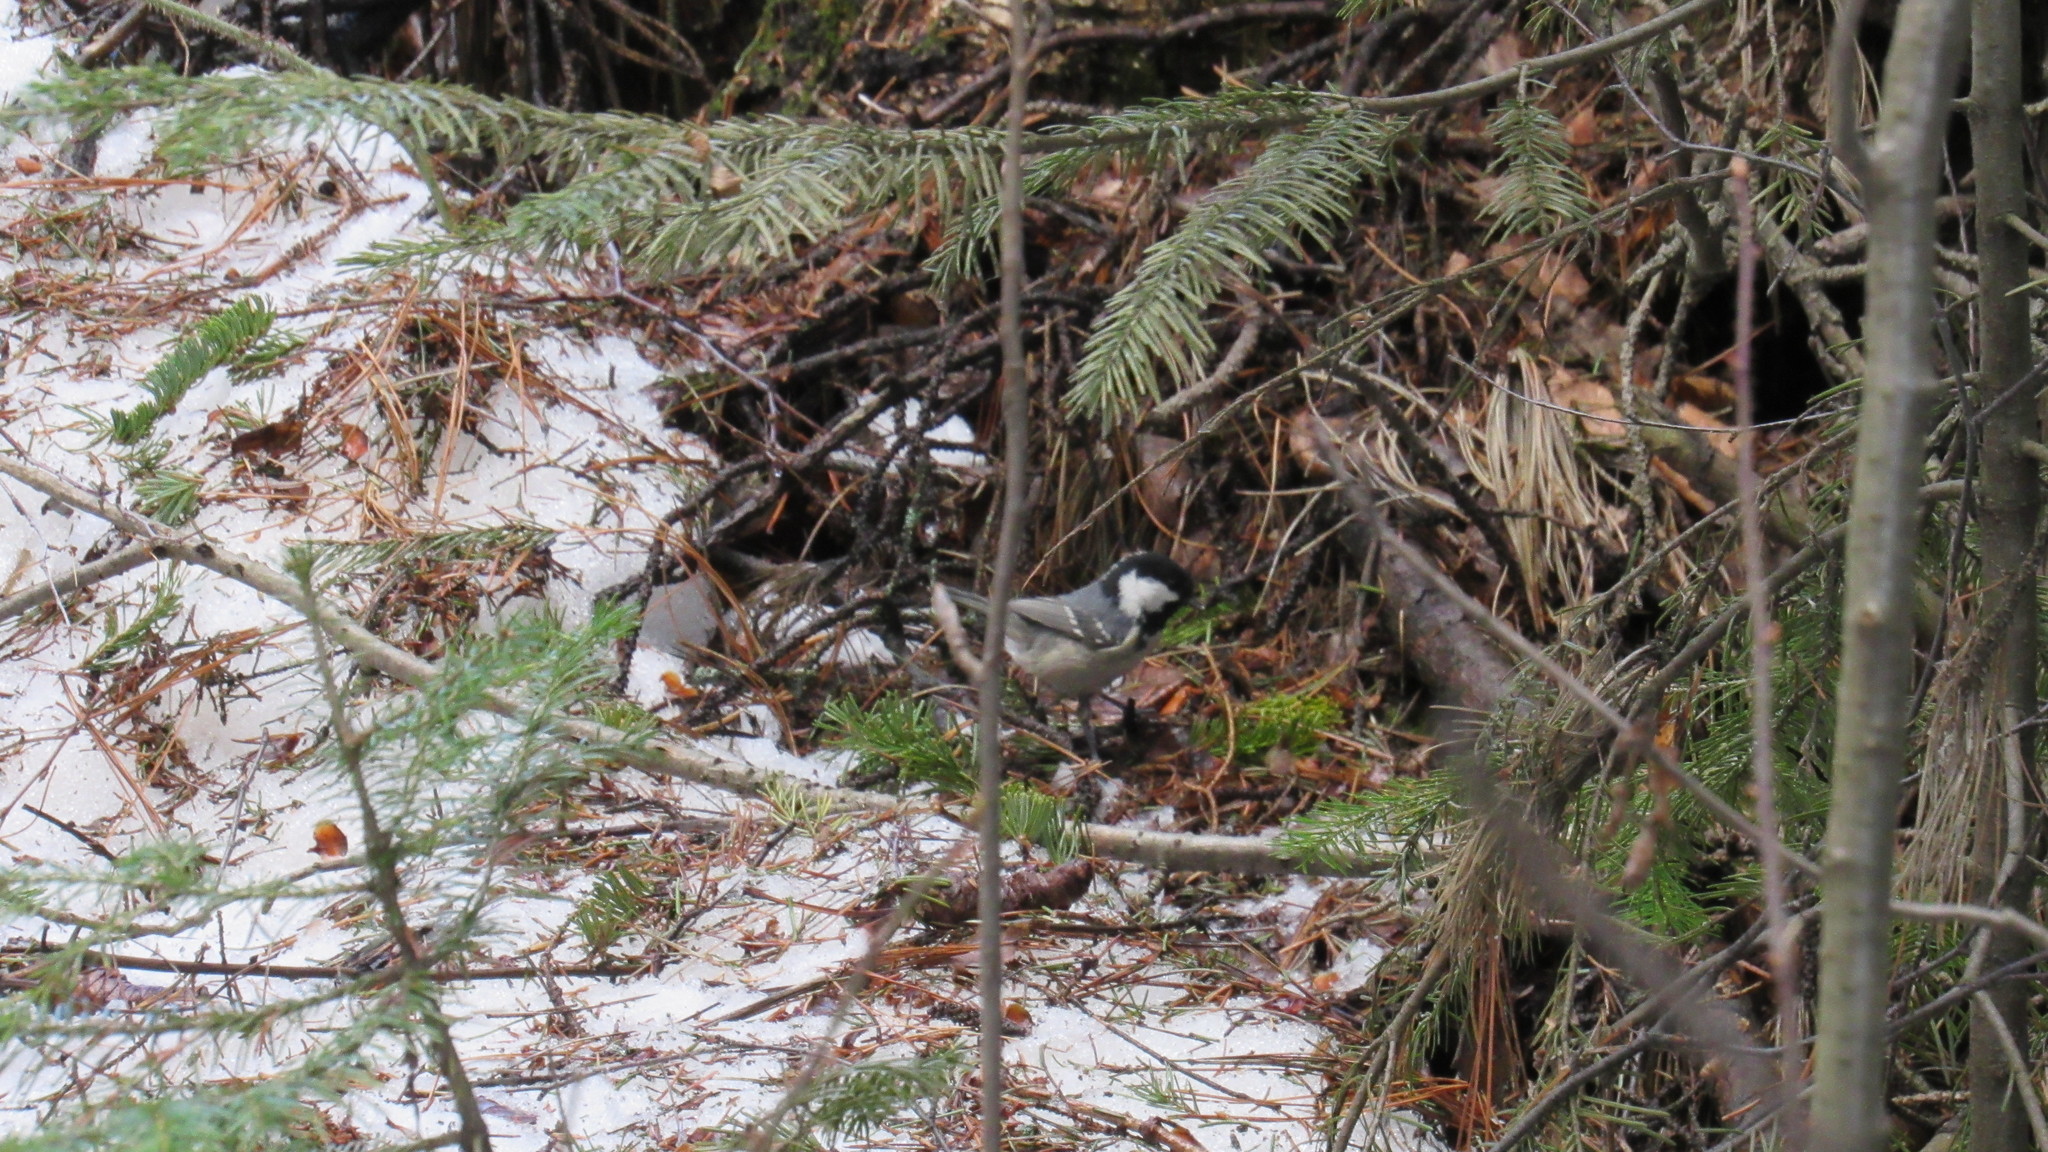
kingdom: Animalia
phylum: Chordata
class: Aves
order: Passeriformes
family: Paridae
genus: Periparus
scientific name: Periparus ater
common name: Coal tit
